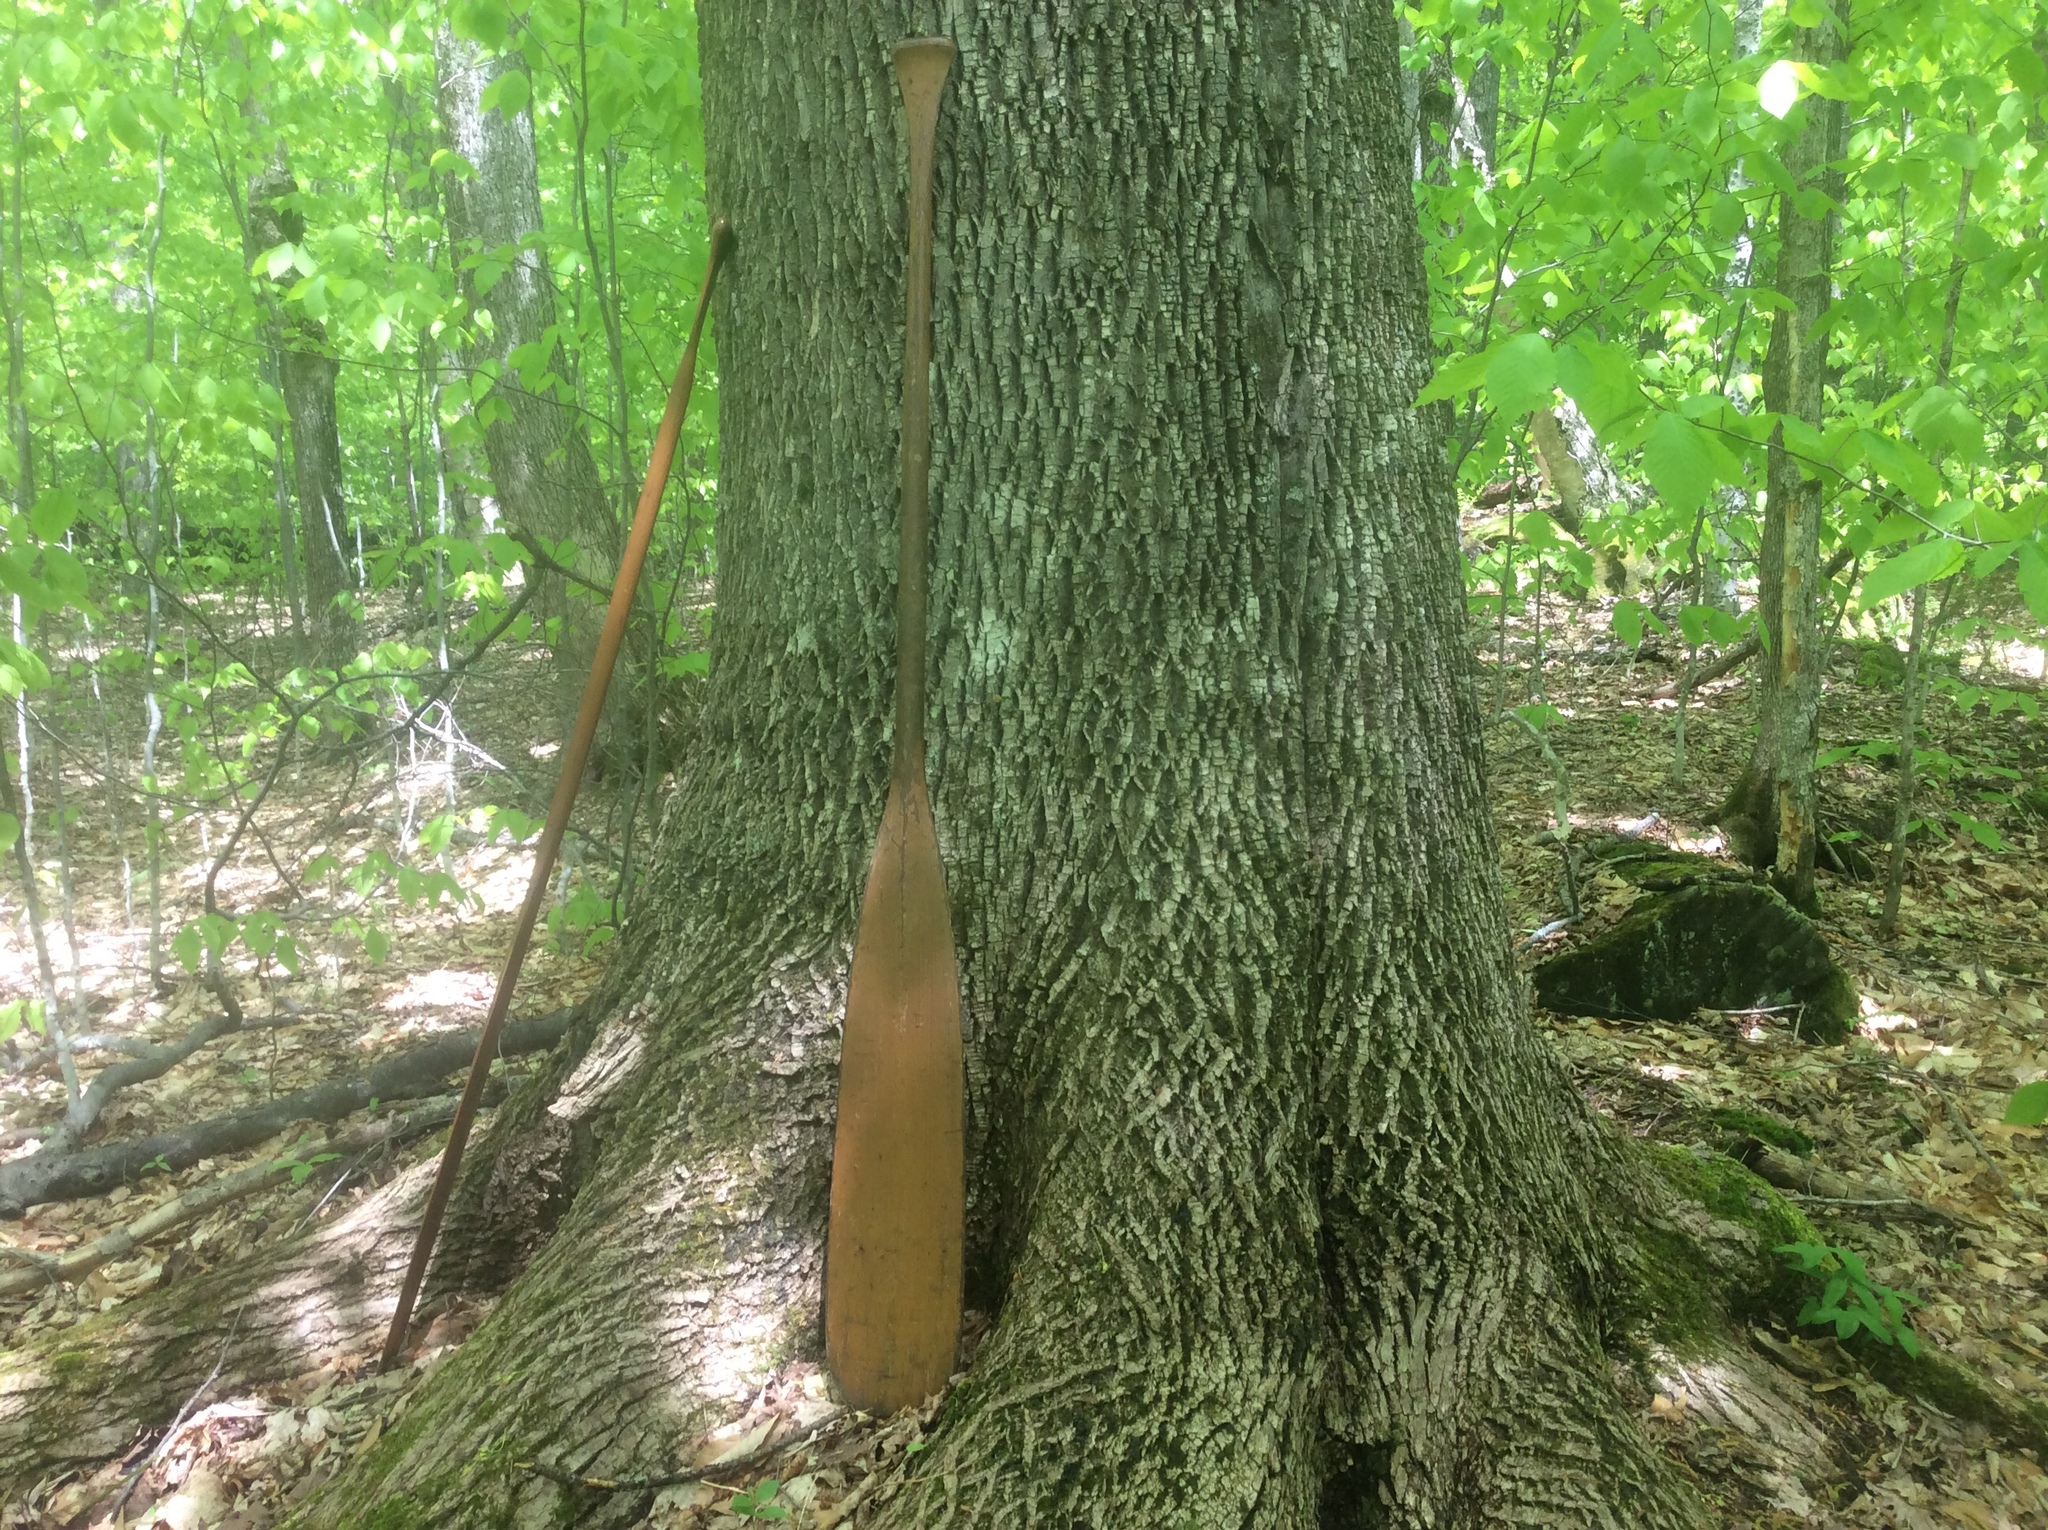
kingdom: Plantae
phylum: Tracheophyta
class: Magnoliopsida
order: Lamiales
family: Oleaceae
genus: Fraxinus
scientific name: Fraxinus americana
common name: White ash
